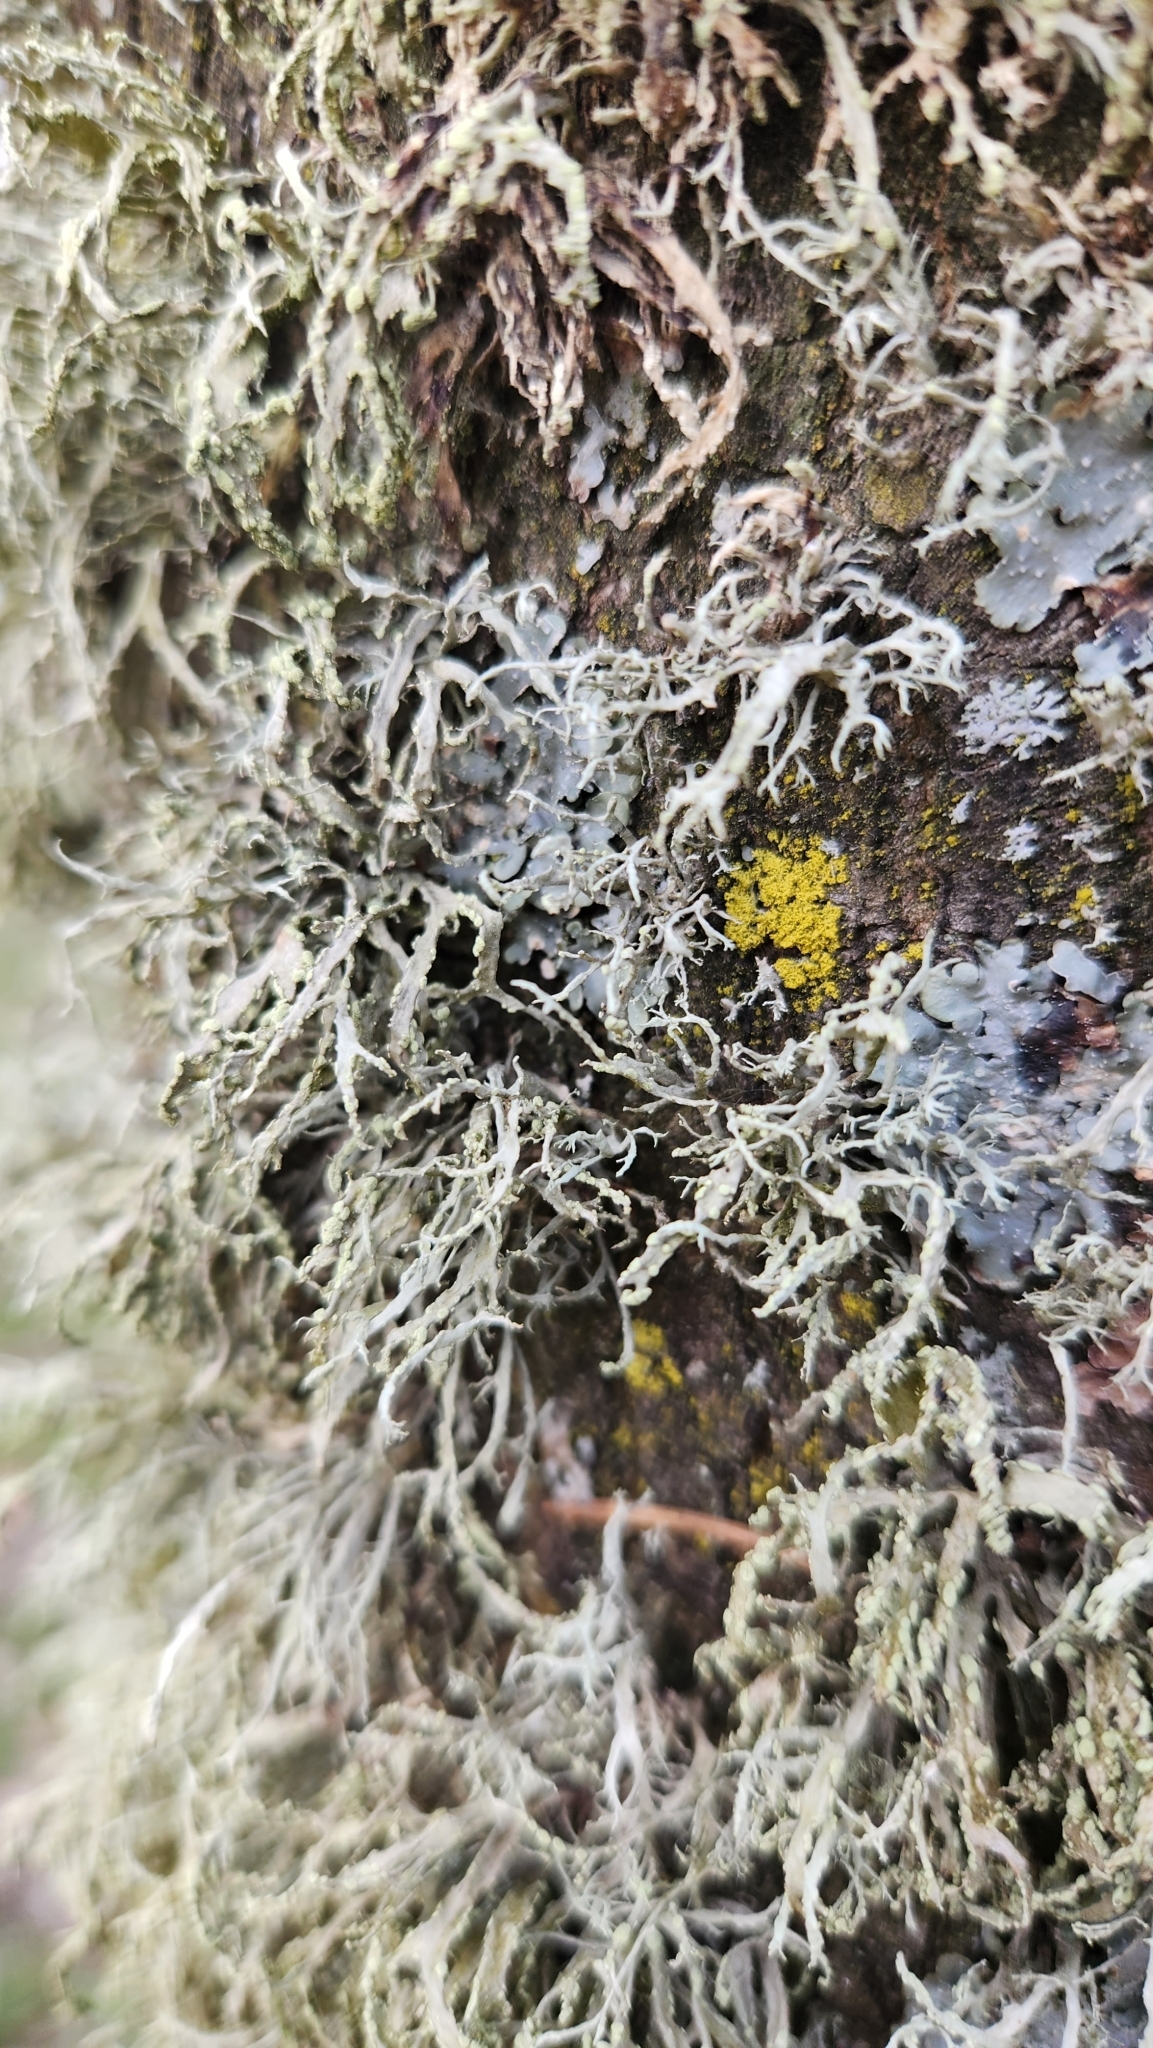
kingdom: Fungi
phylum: Ascomycota
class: Lecanoromycetes
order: Lecanorales
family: Ramalinaceae
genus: Ramalina
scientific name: Ramalina farinacea
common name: Farinose cartilage lichen
